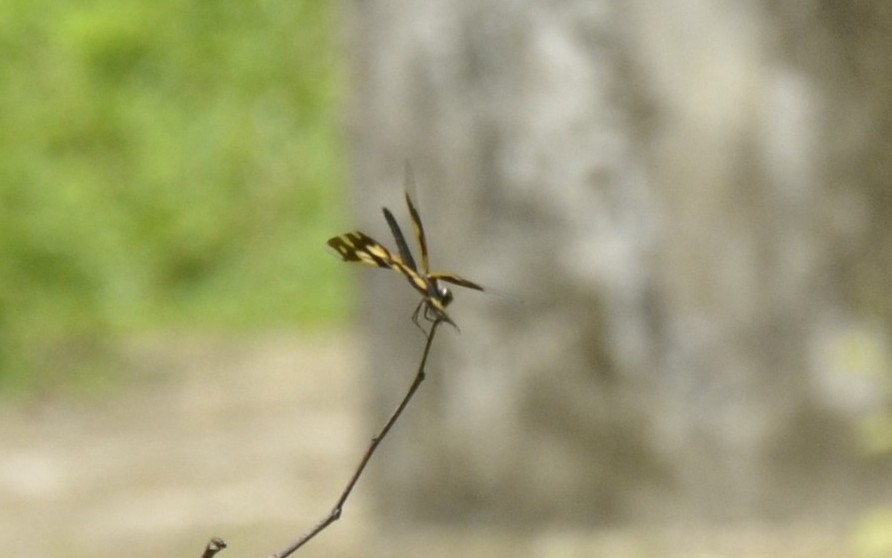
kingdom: Animalia
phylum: Arthropoda
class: Insecta
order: Odonata
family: Libellulidae
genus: Rhyothemis
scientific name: Rhyothemis variegata
